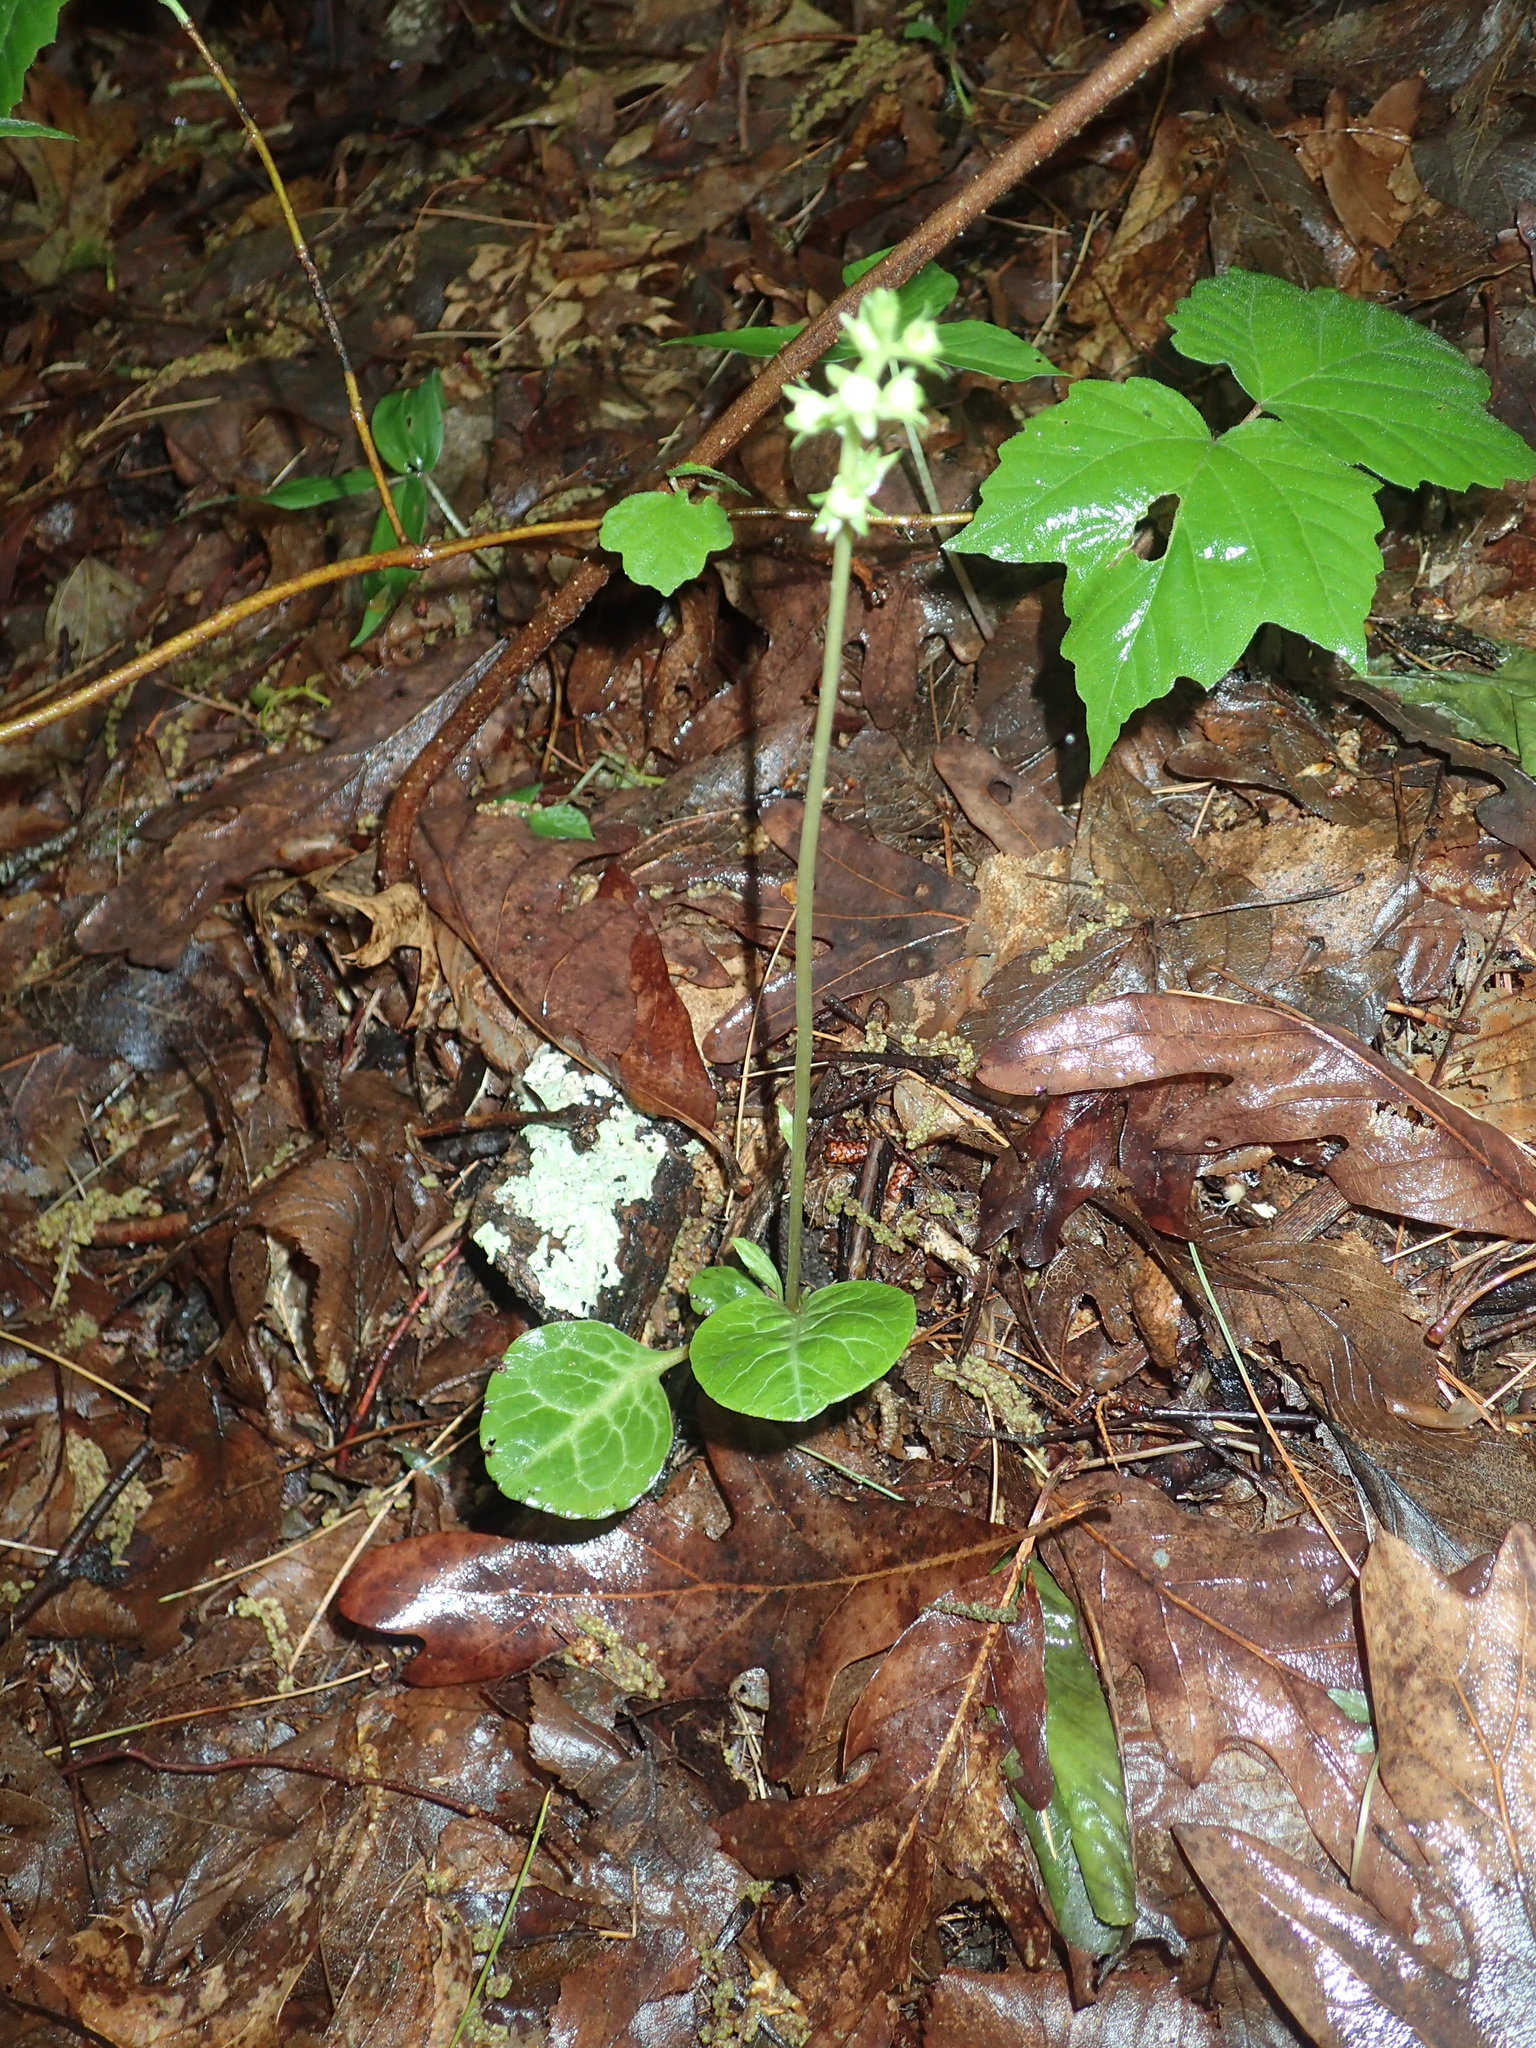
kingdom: Plantae
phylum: Tracheophyta
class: Magnoliopsida
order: Ericales
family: Ericaceae
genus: Pyrola
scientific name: Pyrola americana
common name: American wintergreen
